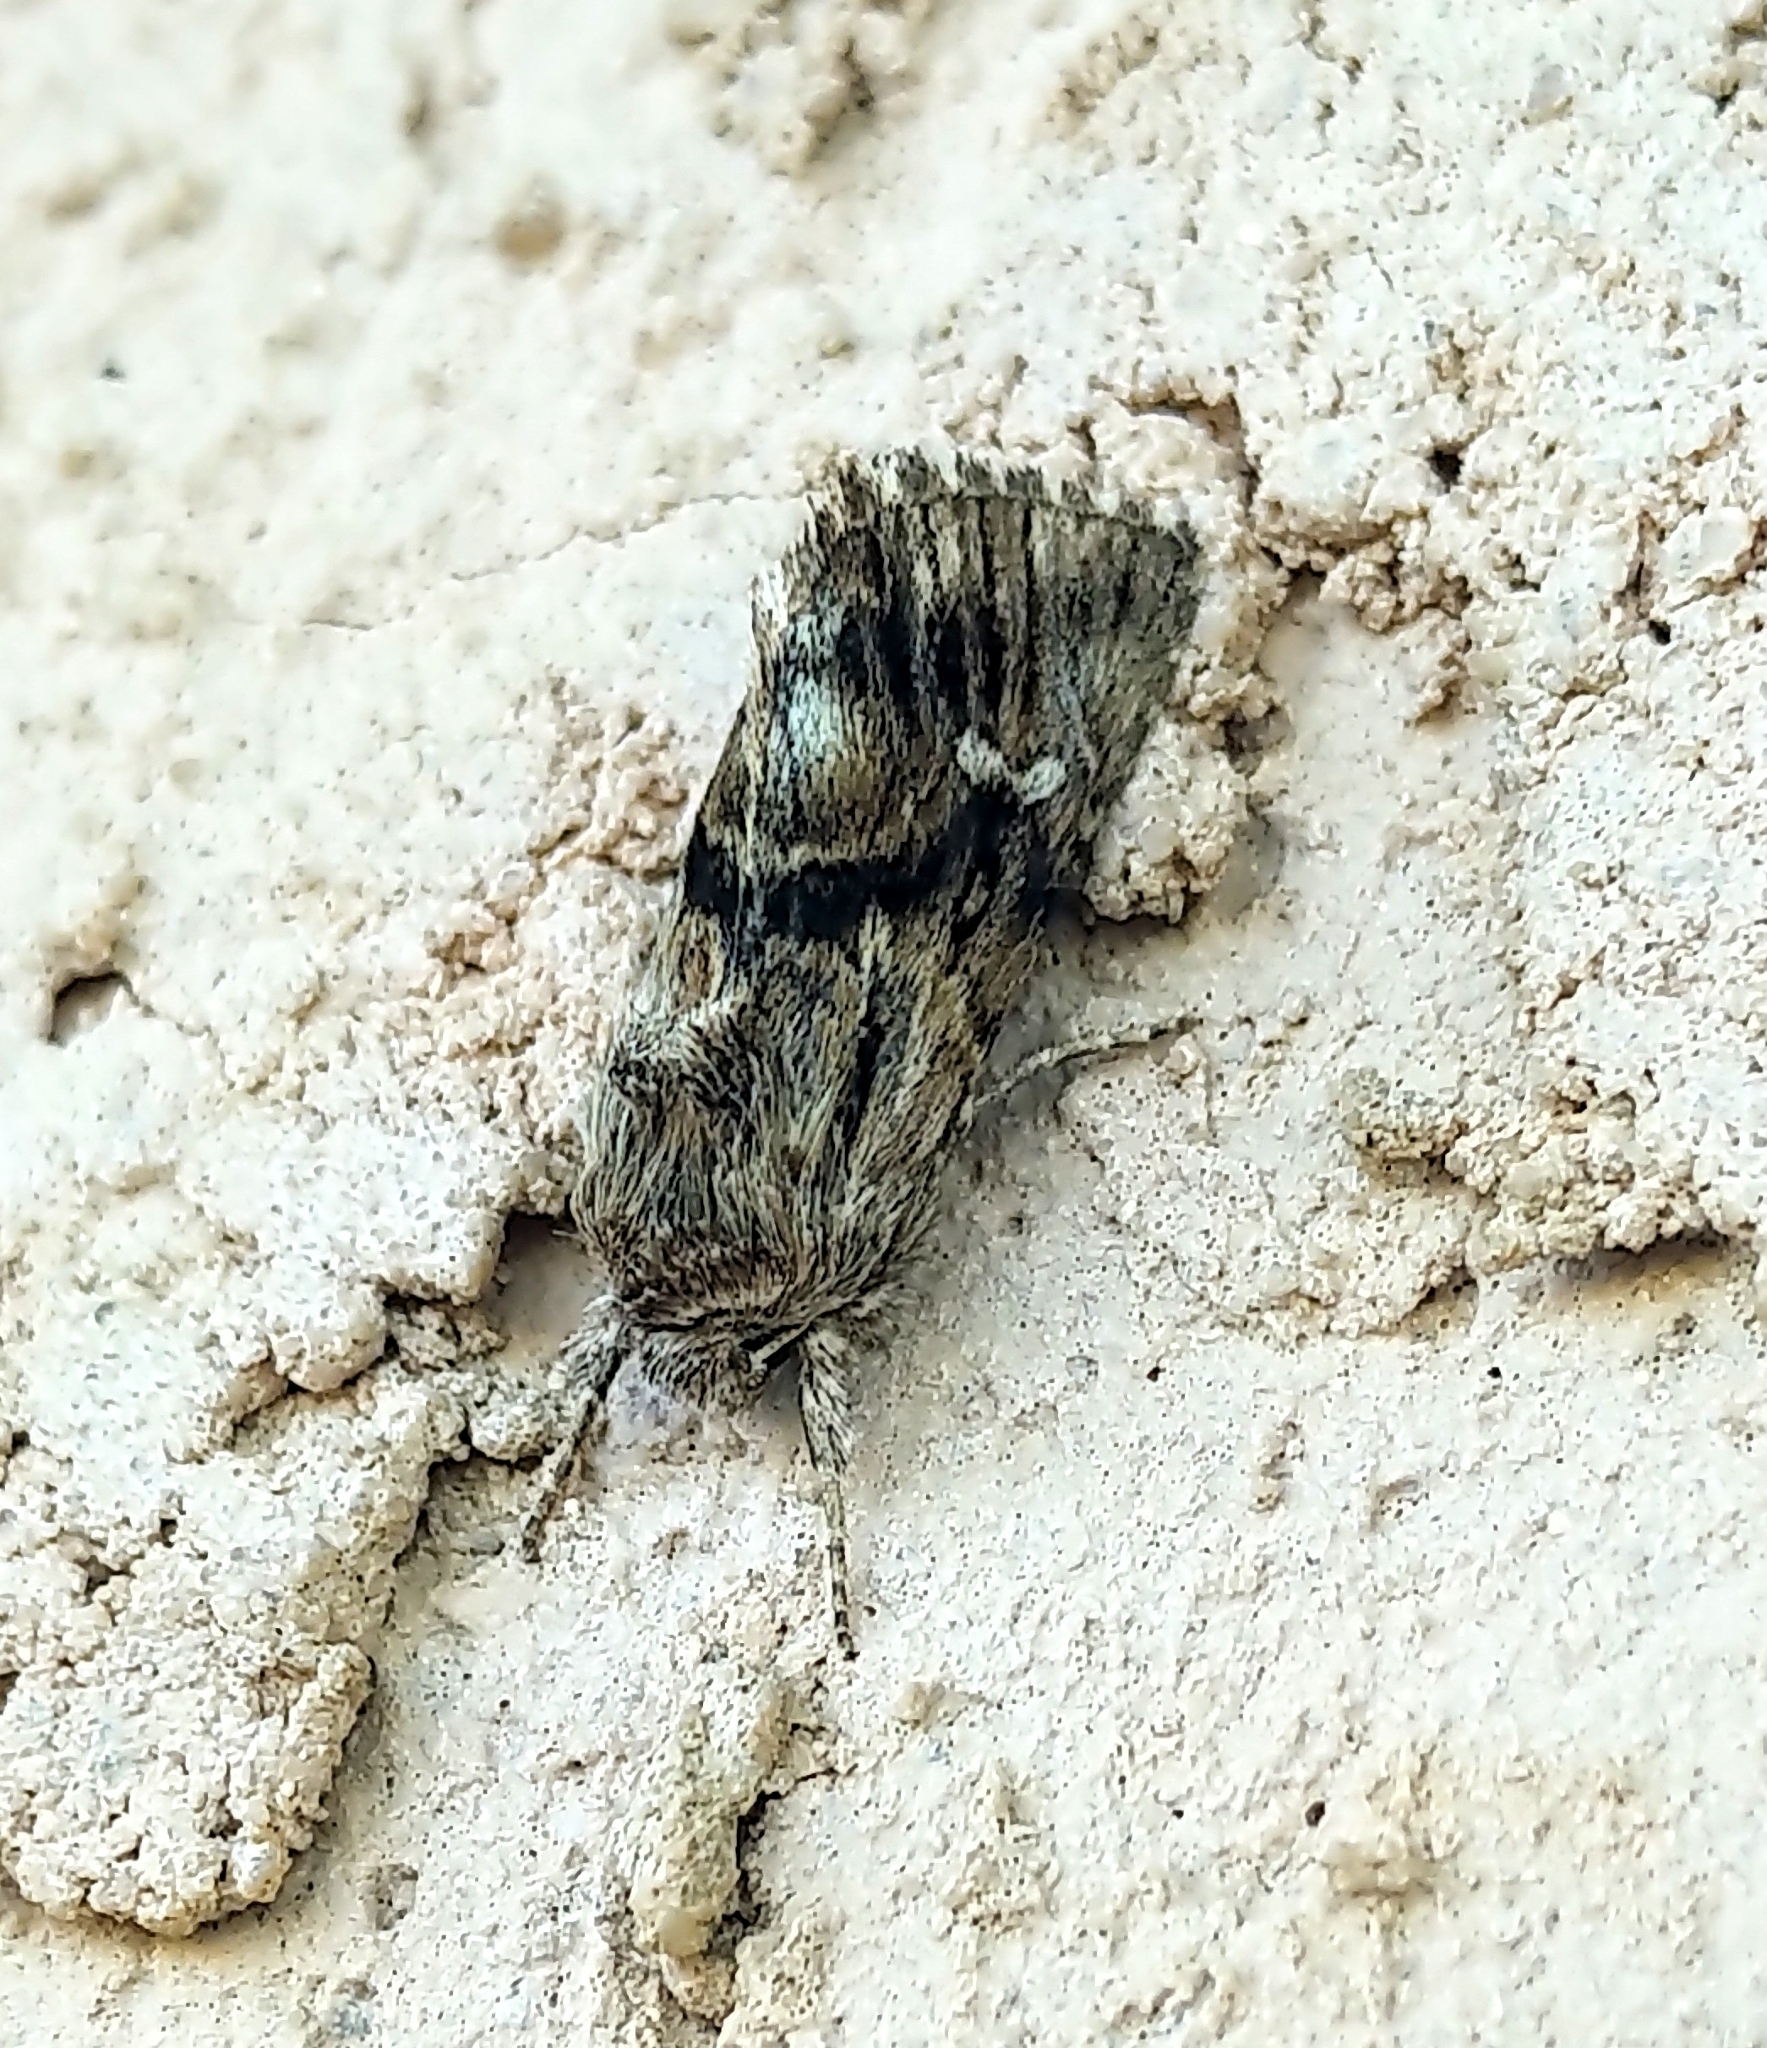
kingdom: Animalia
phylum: Arthropoda
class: Insecta
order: Lepidoptera
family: Noctuidae
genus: Calophasia
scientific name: Calophasia lunula
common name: Toadflax brocade
